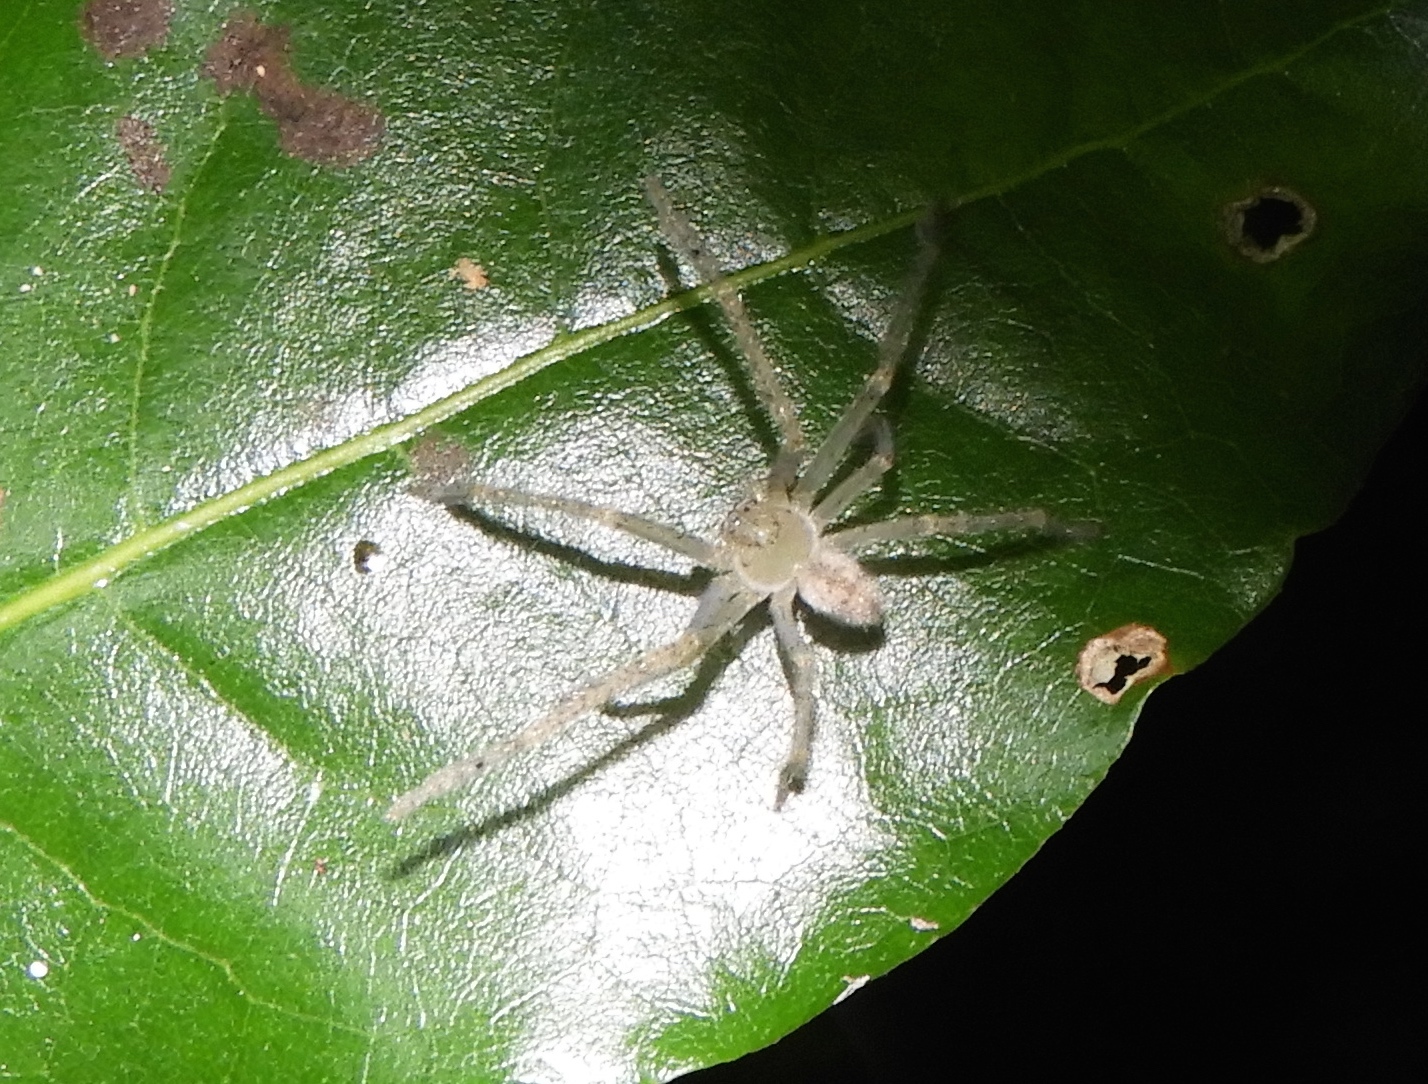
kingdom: Animalia
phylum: Arthropoda
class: Arachnida
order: Araneae
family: Sparassidae
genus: Curicaberis
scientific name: Curicaberis culiacan
